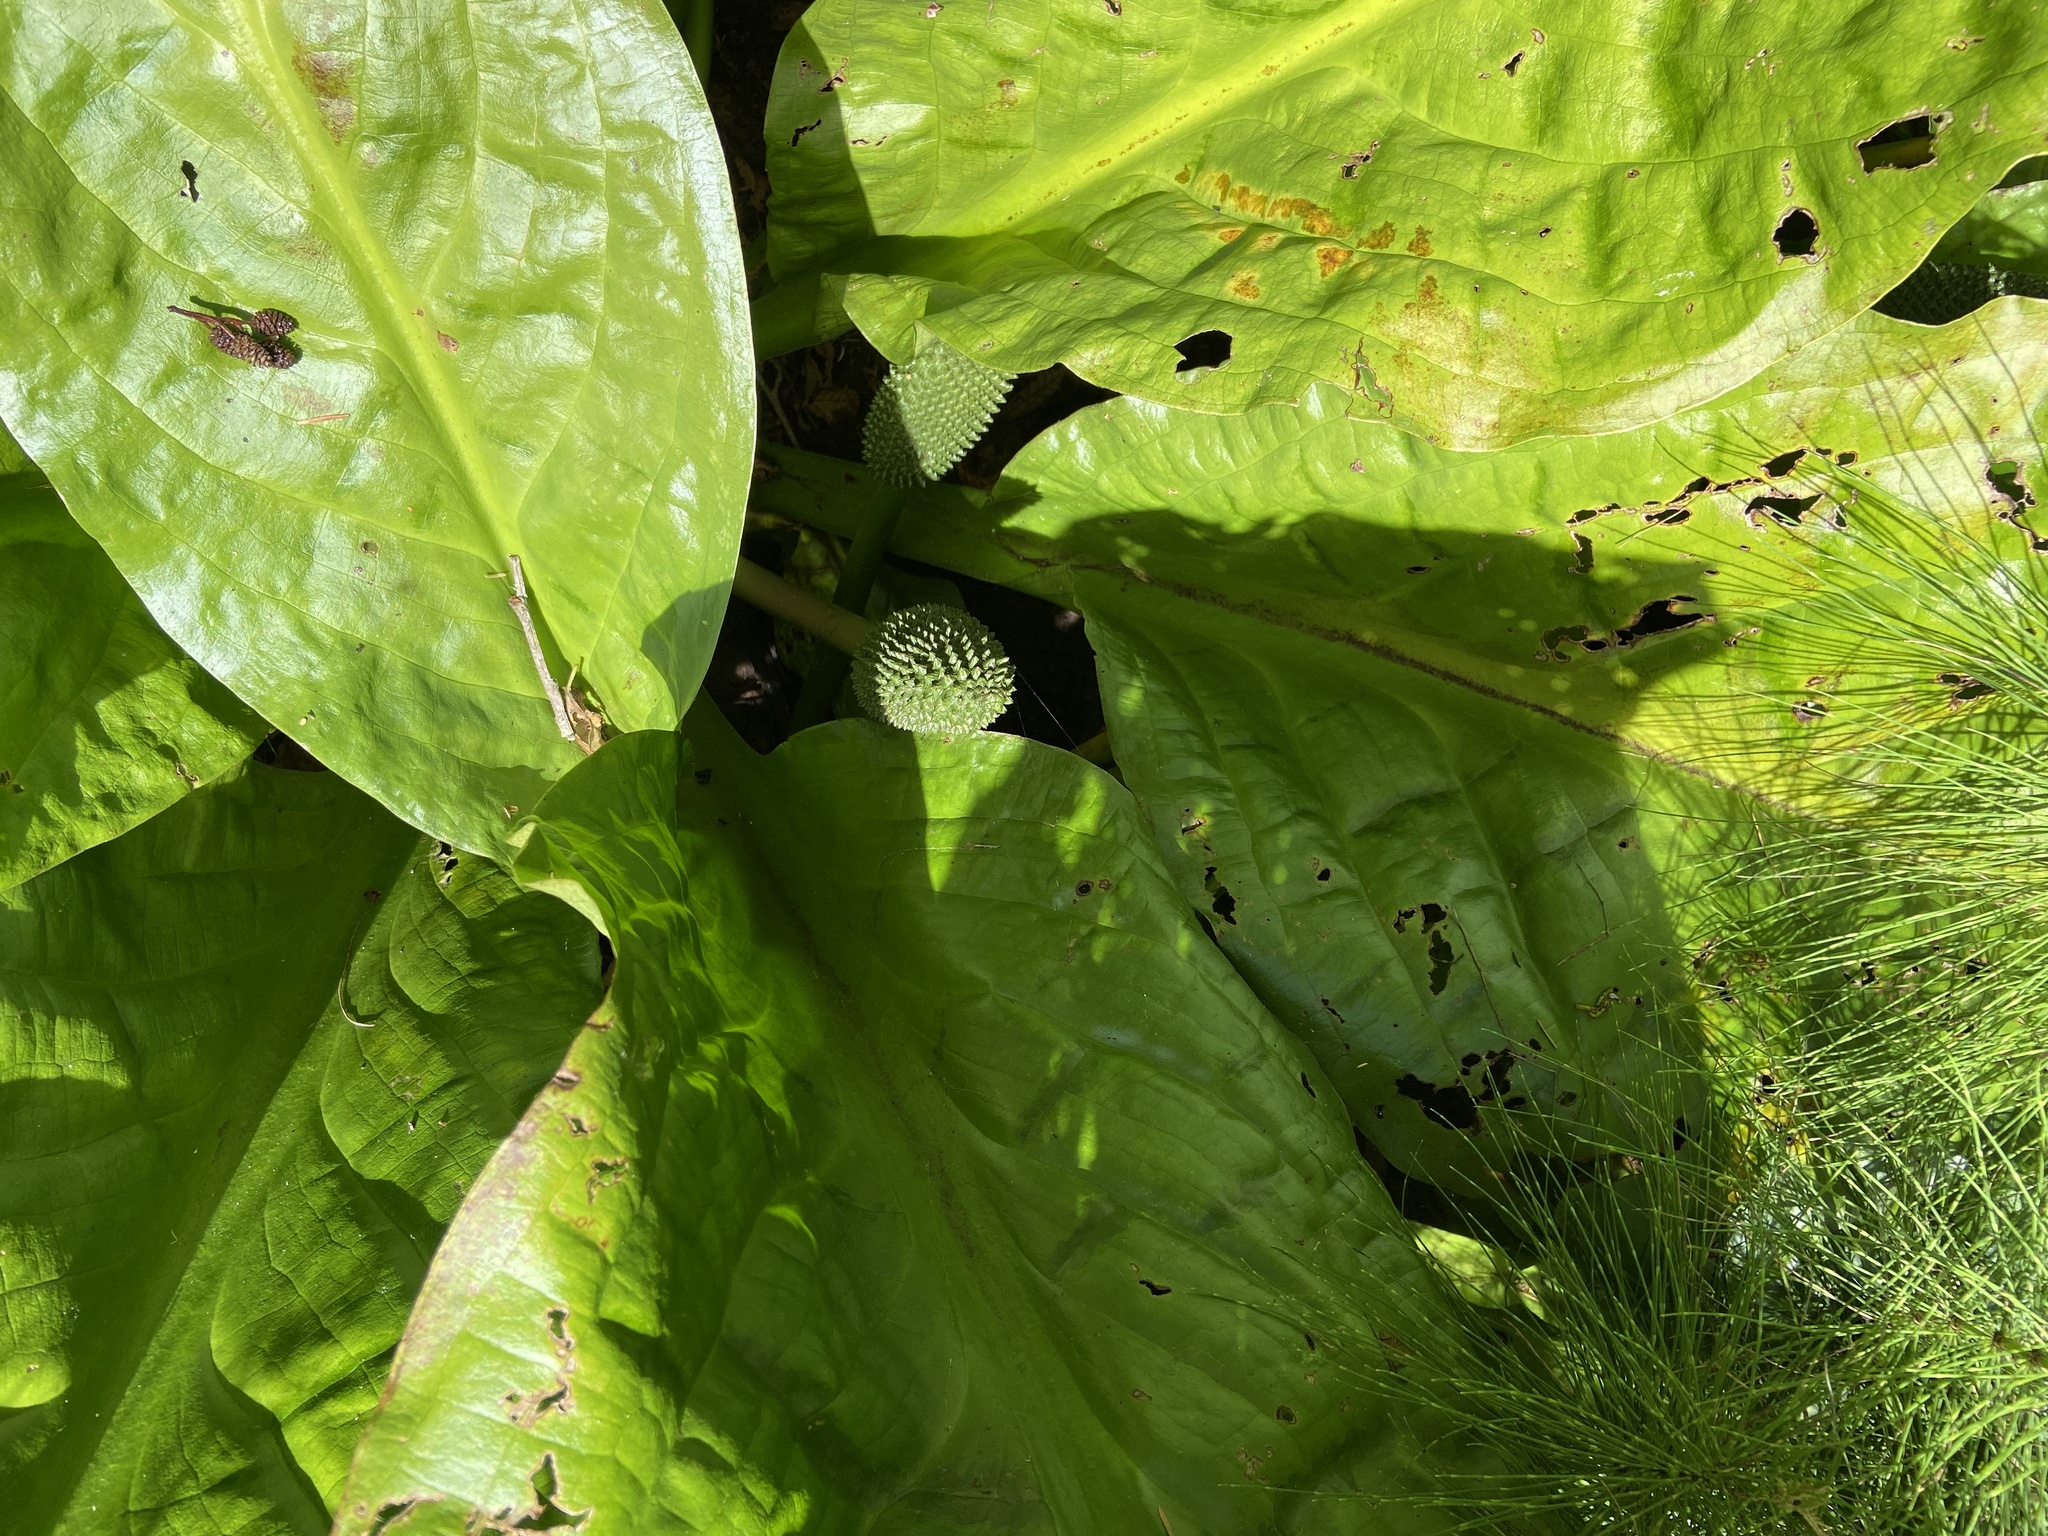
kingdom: Plantae
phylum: Tracheophyta
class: Liliopsida
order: Alismatales
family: Araceae
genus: Lysichiton
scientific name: Lysichiton americanus
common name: American skunk cabbage
